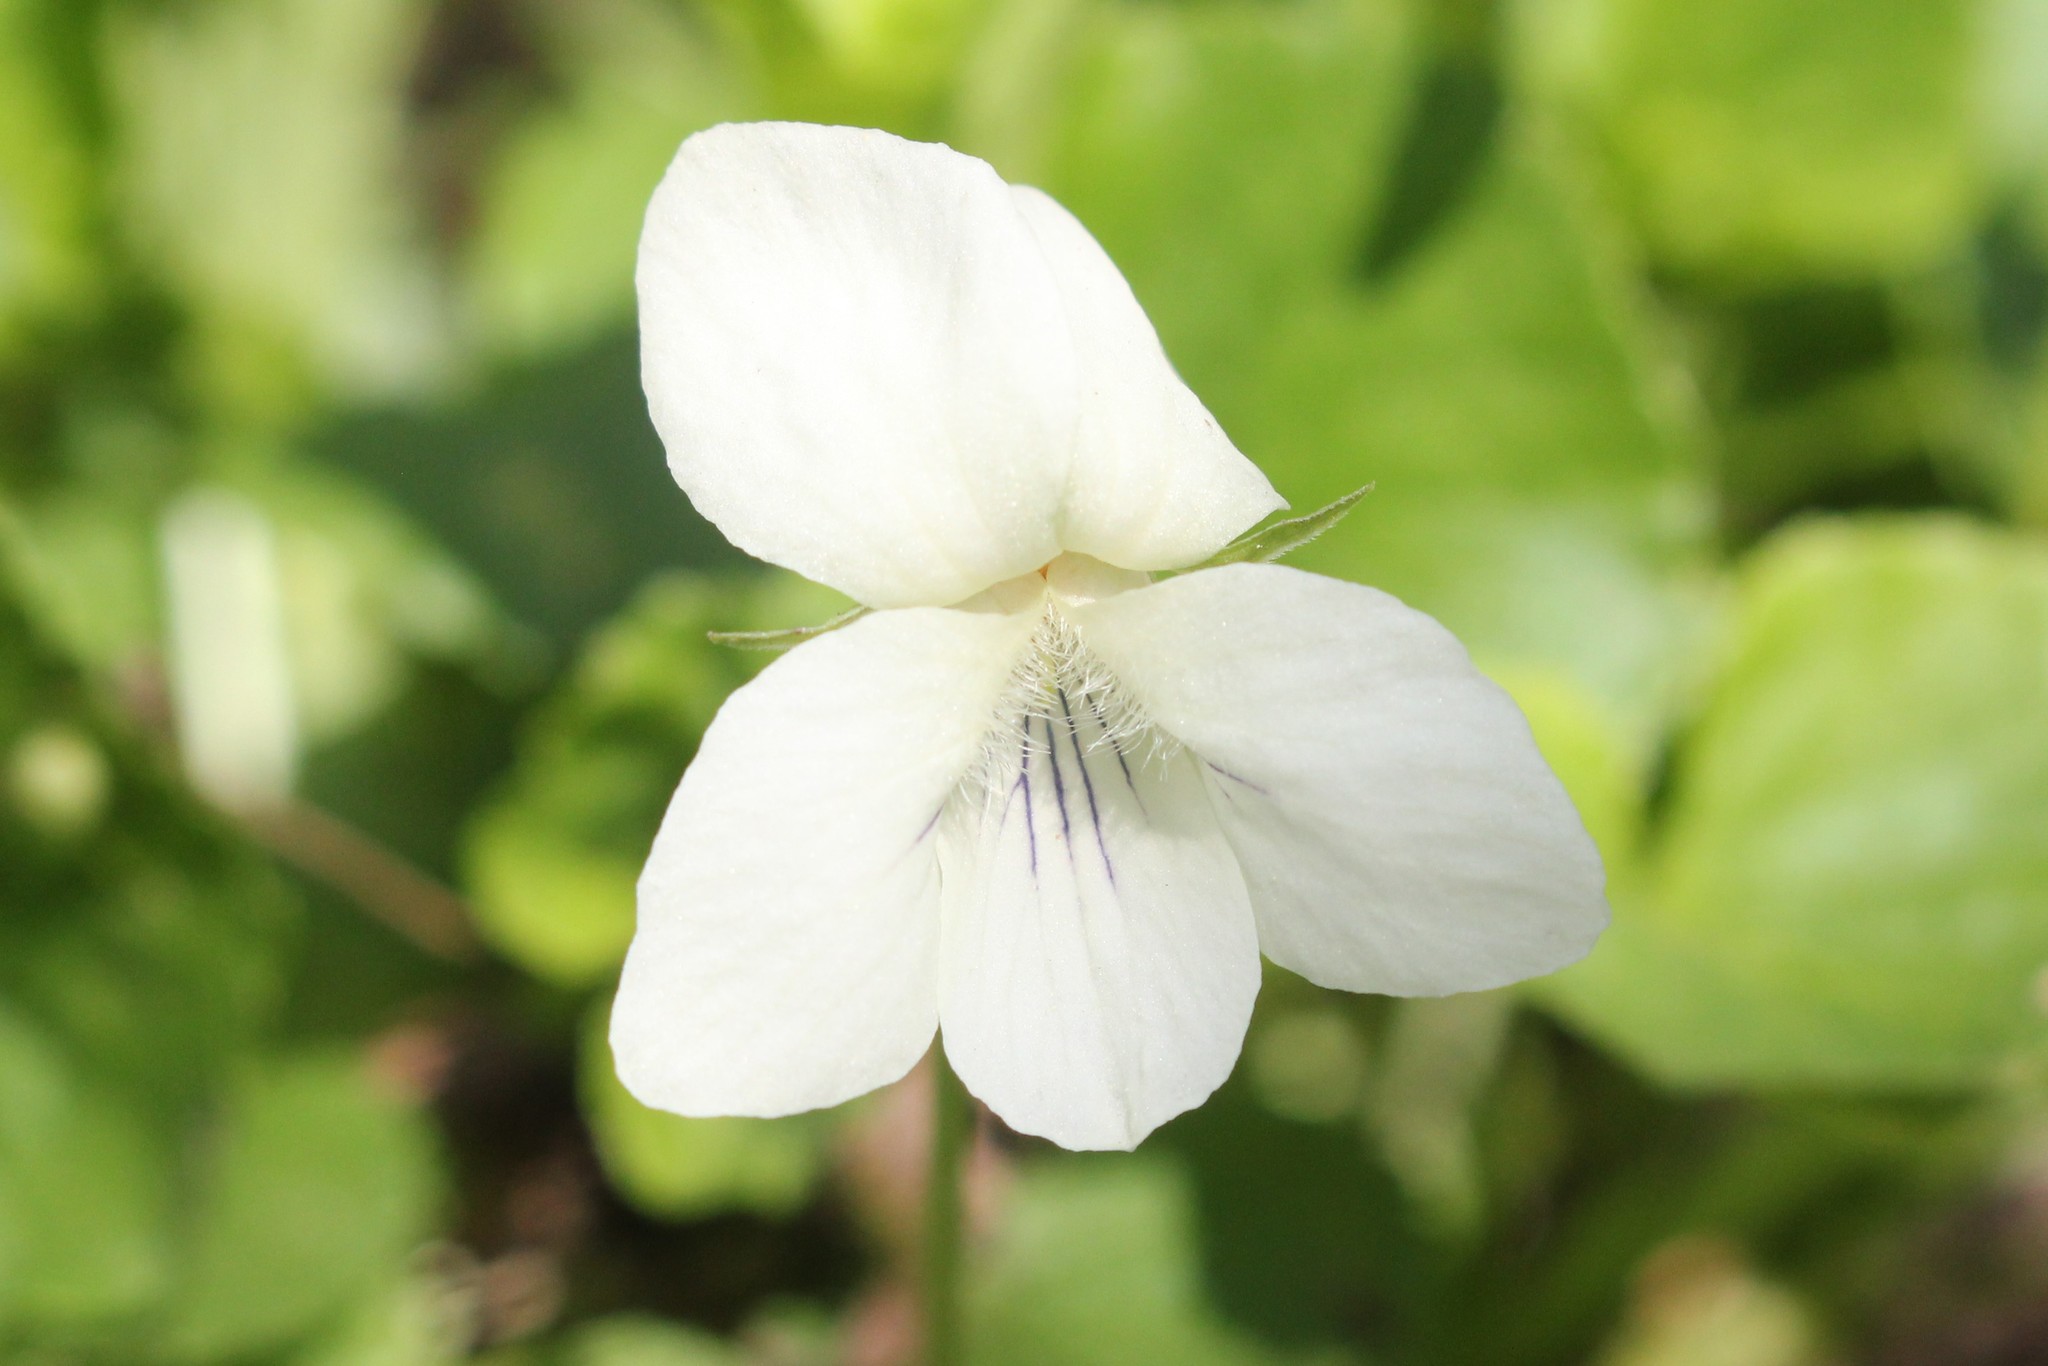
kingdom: Plantae
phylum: Tracheophyta
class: Magnoliopsida
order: Malpighiales
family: Violaceae
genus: Viola
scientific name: Viola striata
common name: Cream violet
